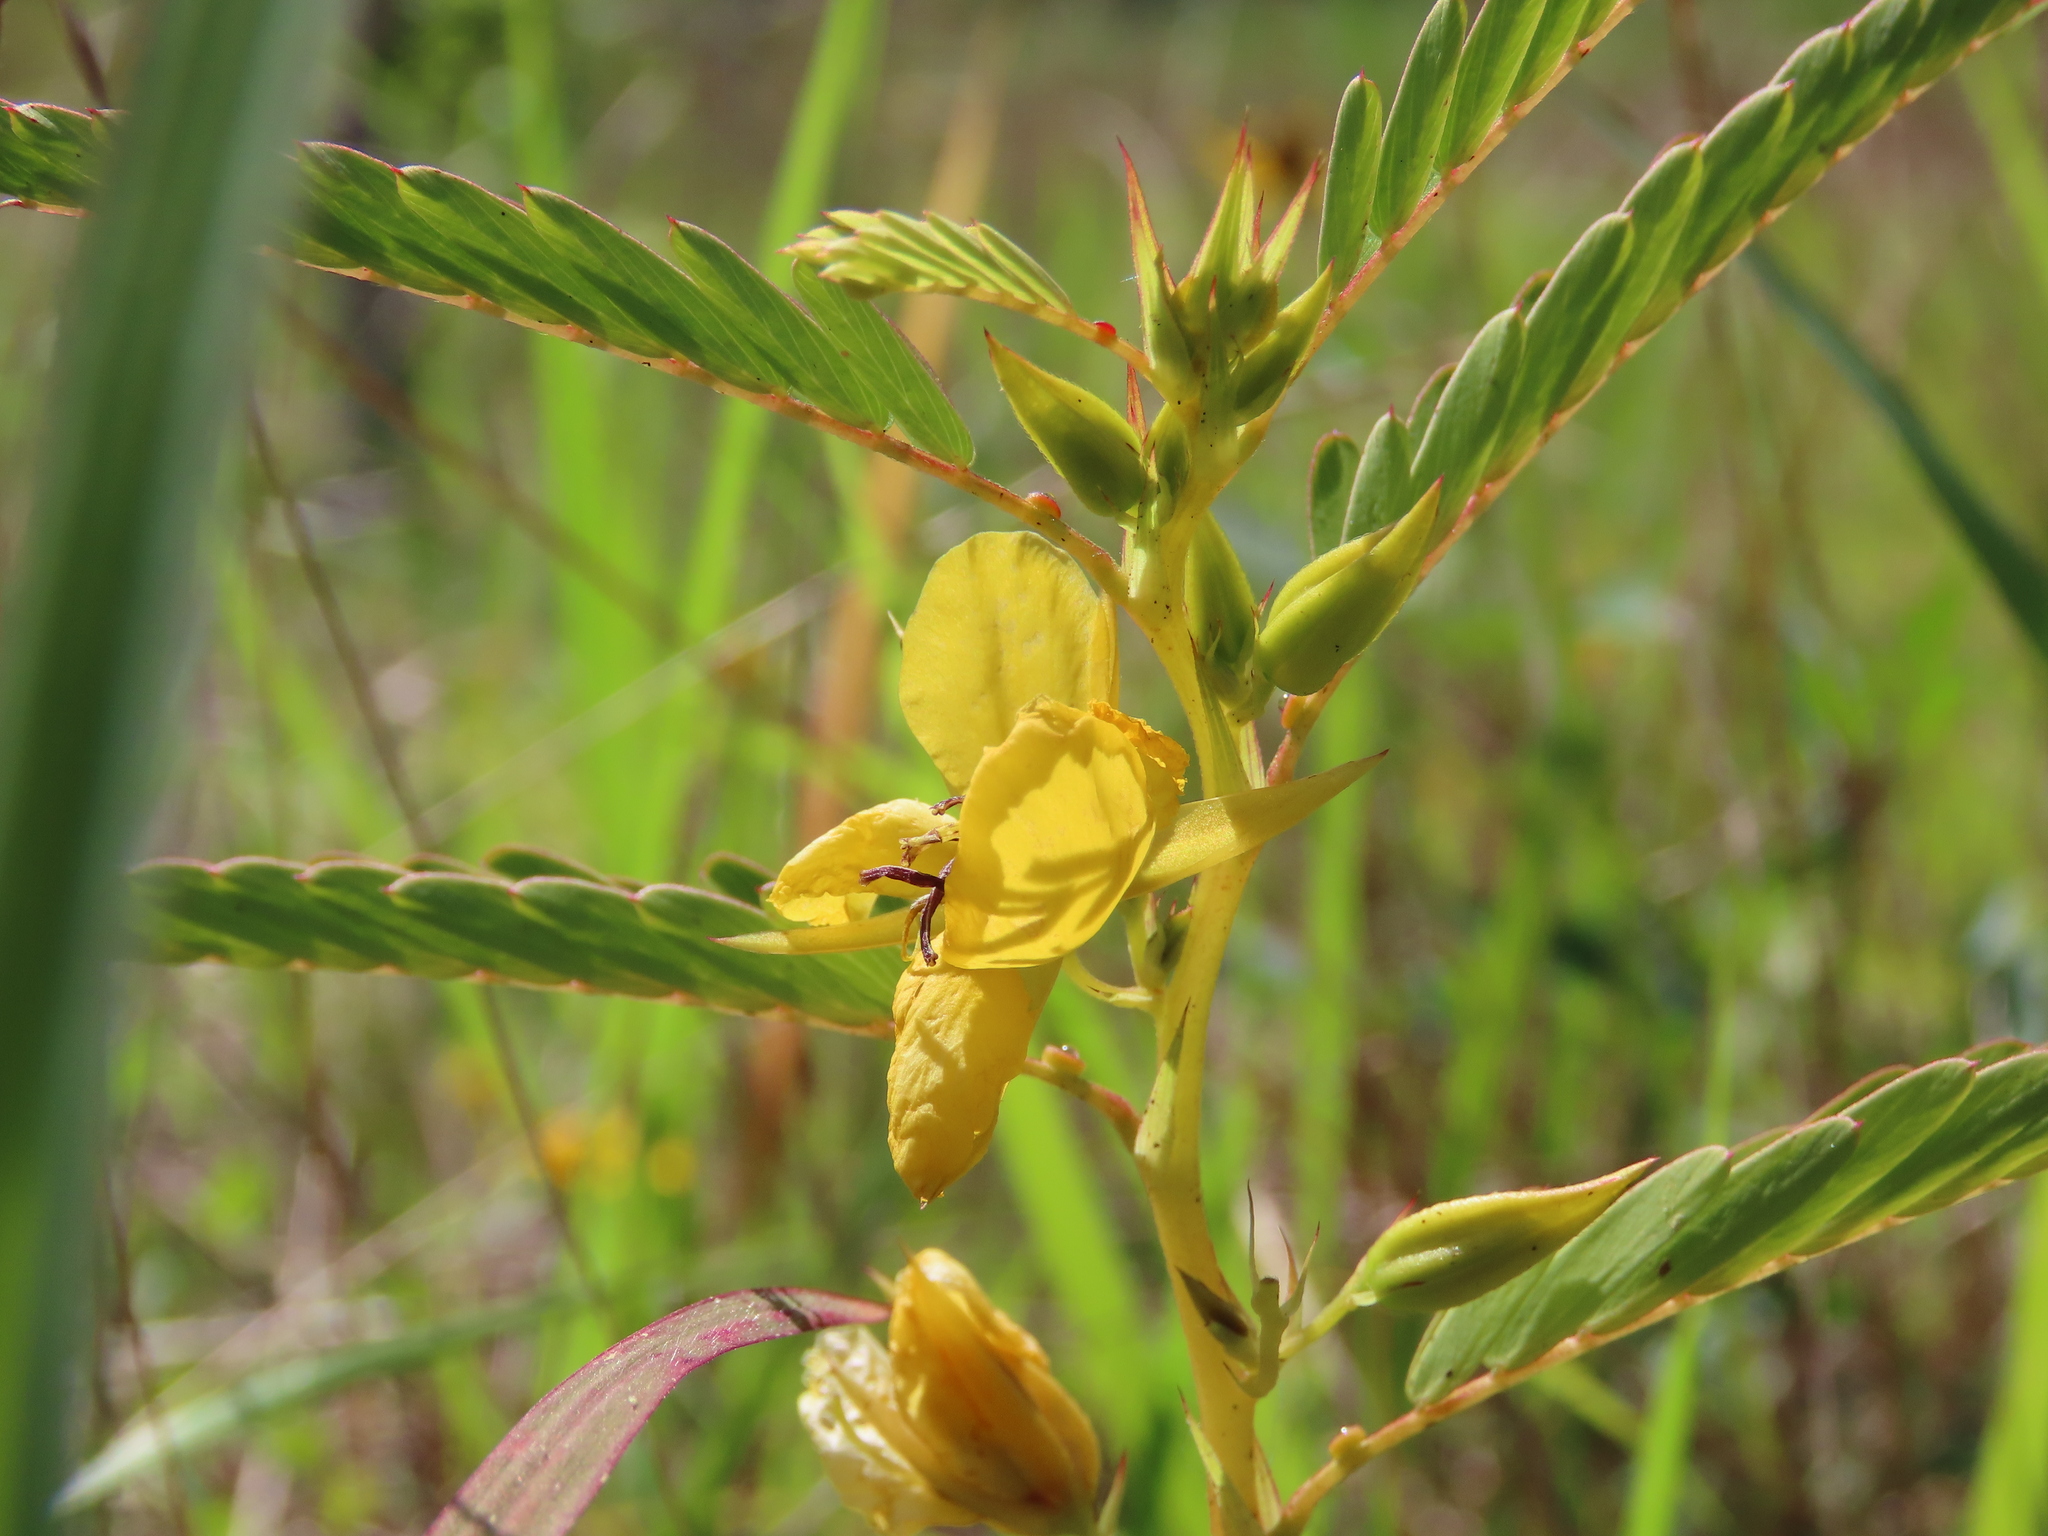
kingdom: Plantae
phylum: Tracheophyta
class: Magnoliopsida
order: Fabales
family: Fabaceae
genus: Chamaecrista
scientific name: Chamaecrista fasciculata
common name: Golden cassia
